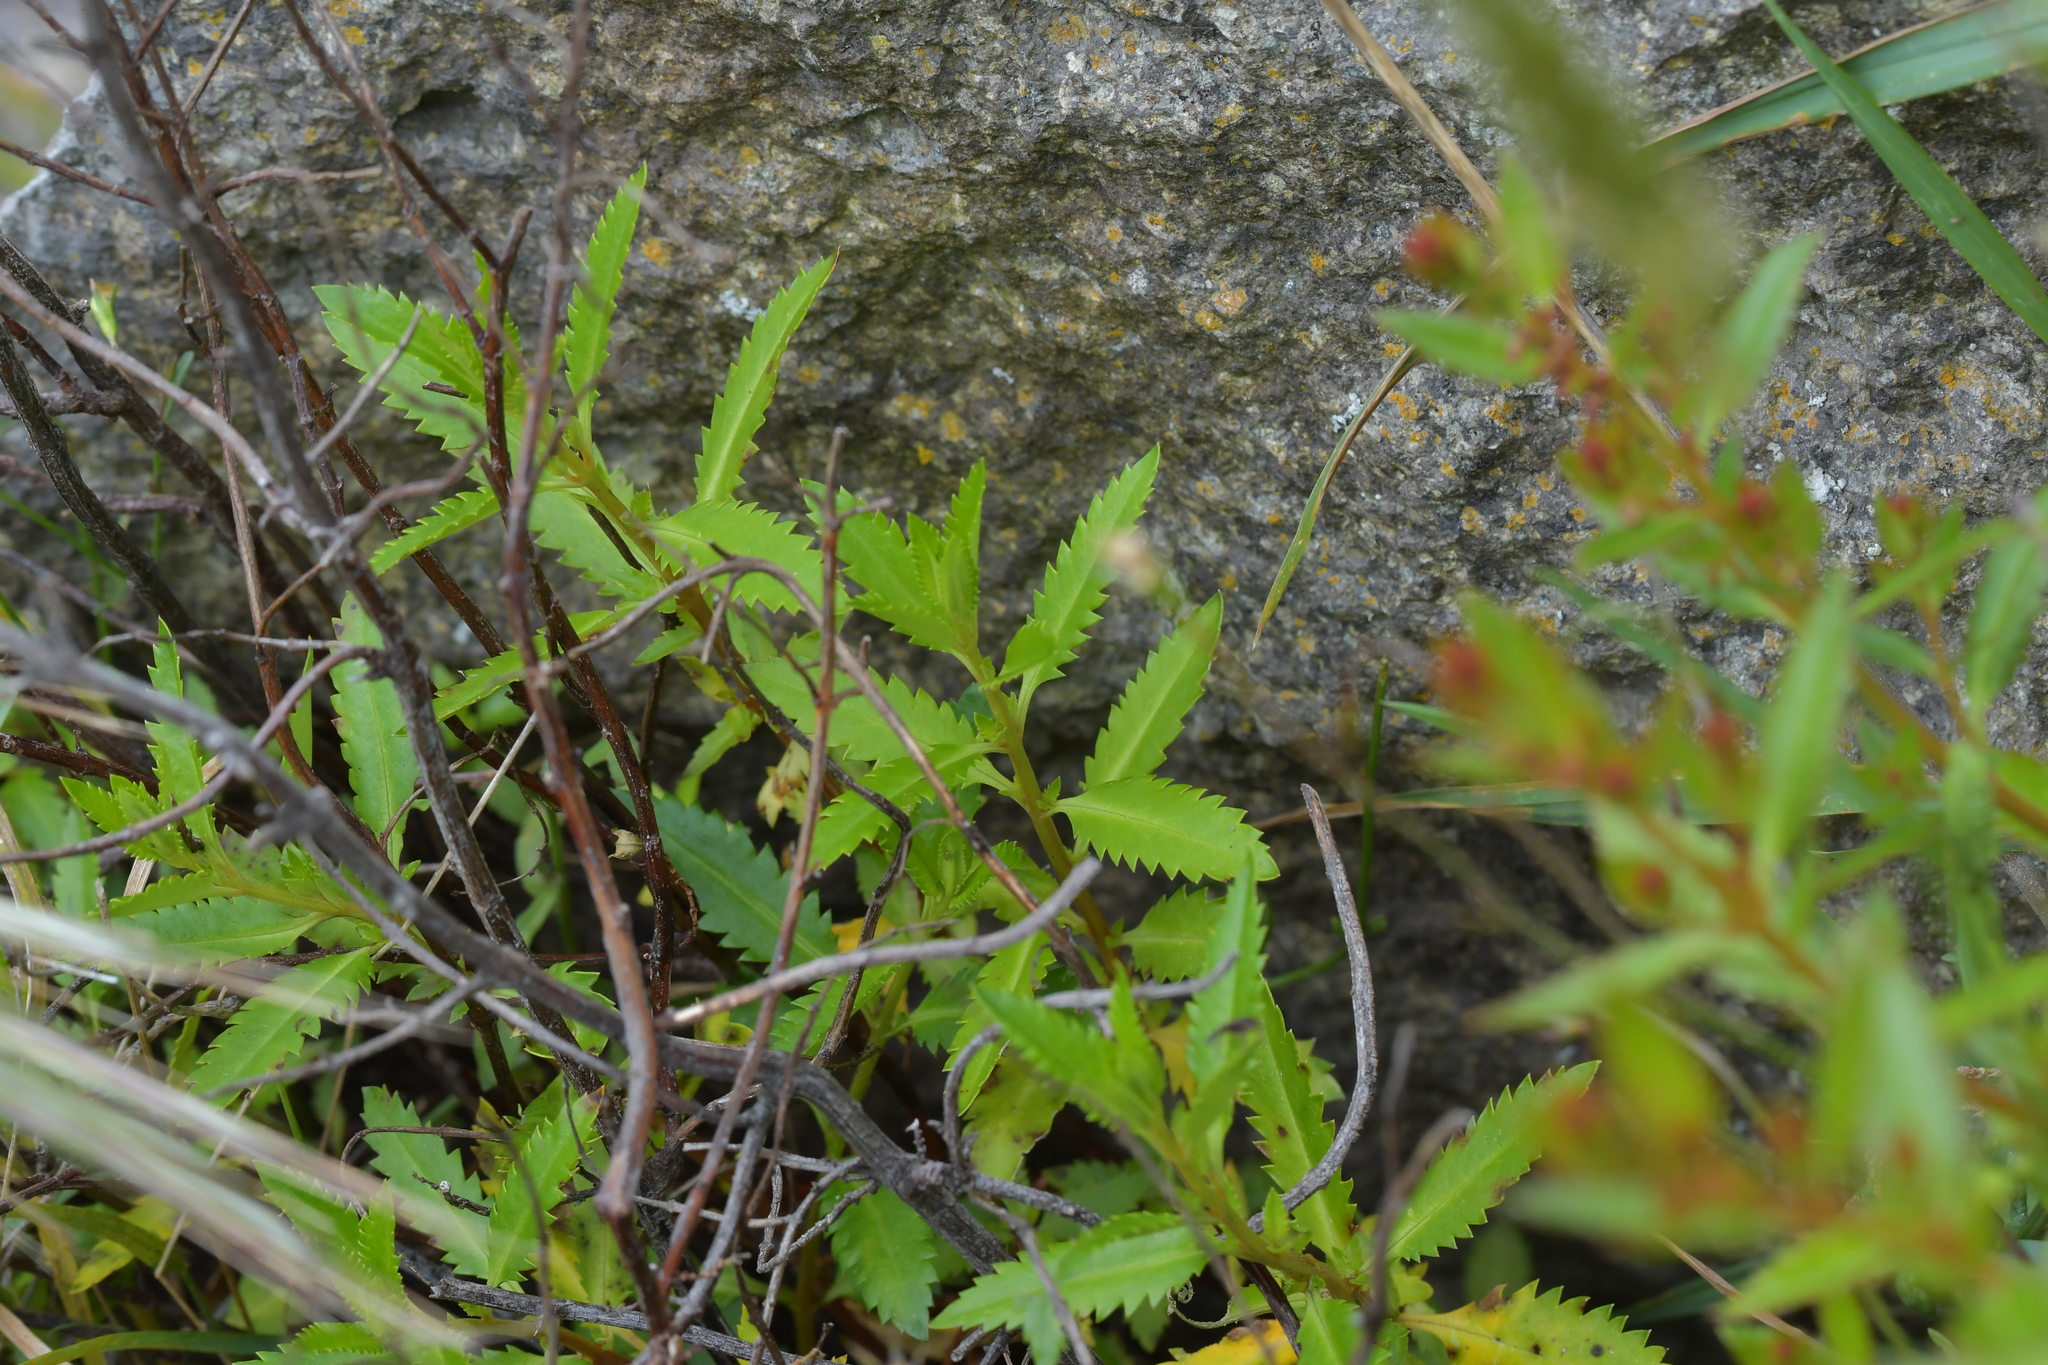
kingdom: Plantae
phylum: Tracheophyta
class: Magnoliopsida
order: Saxifragales
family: Haloragaceae
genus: Haloragis
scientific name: Haloragis erecta
